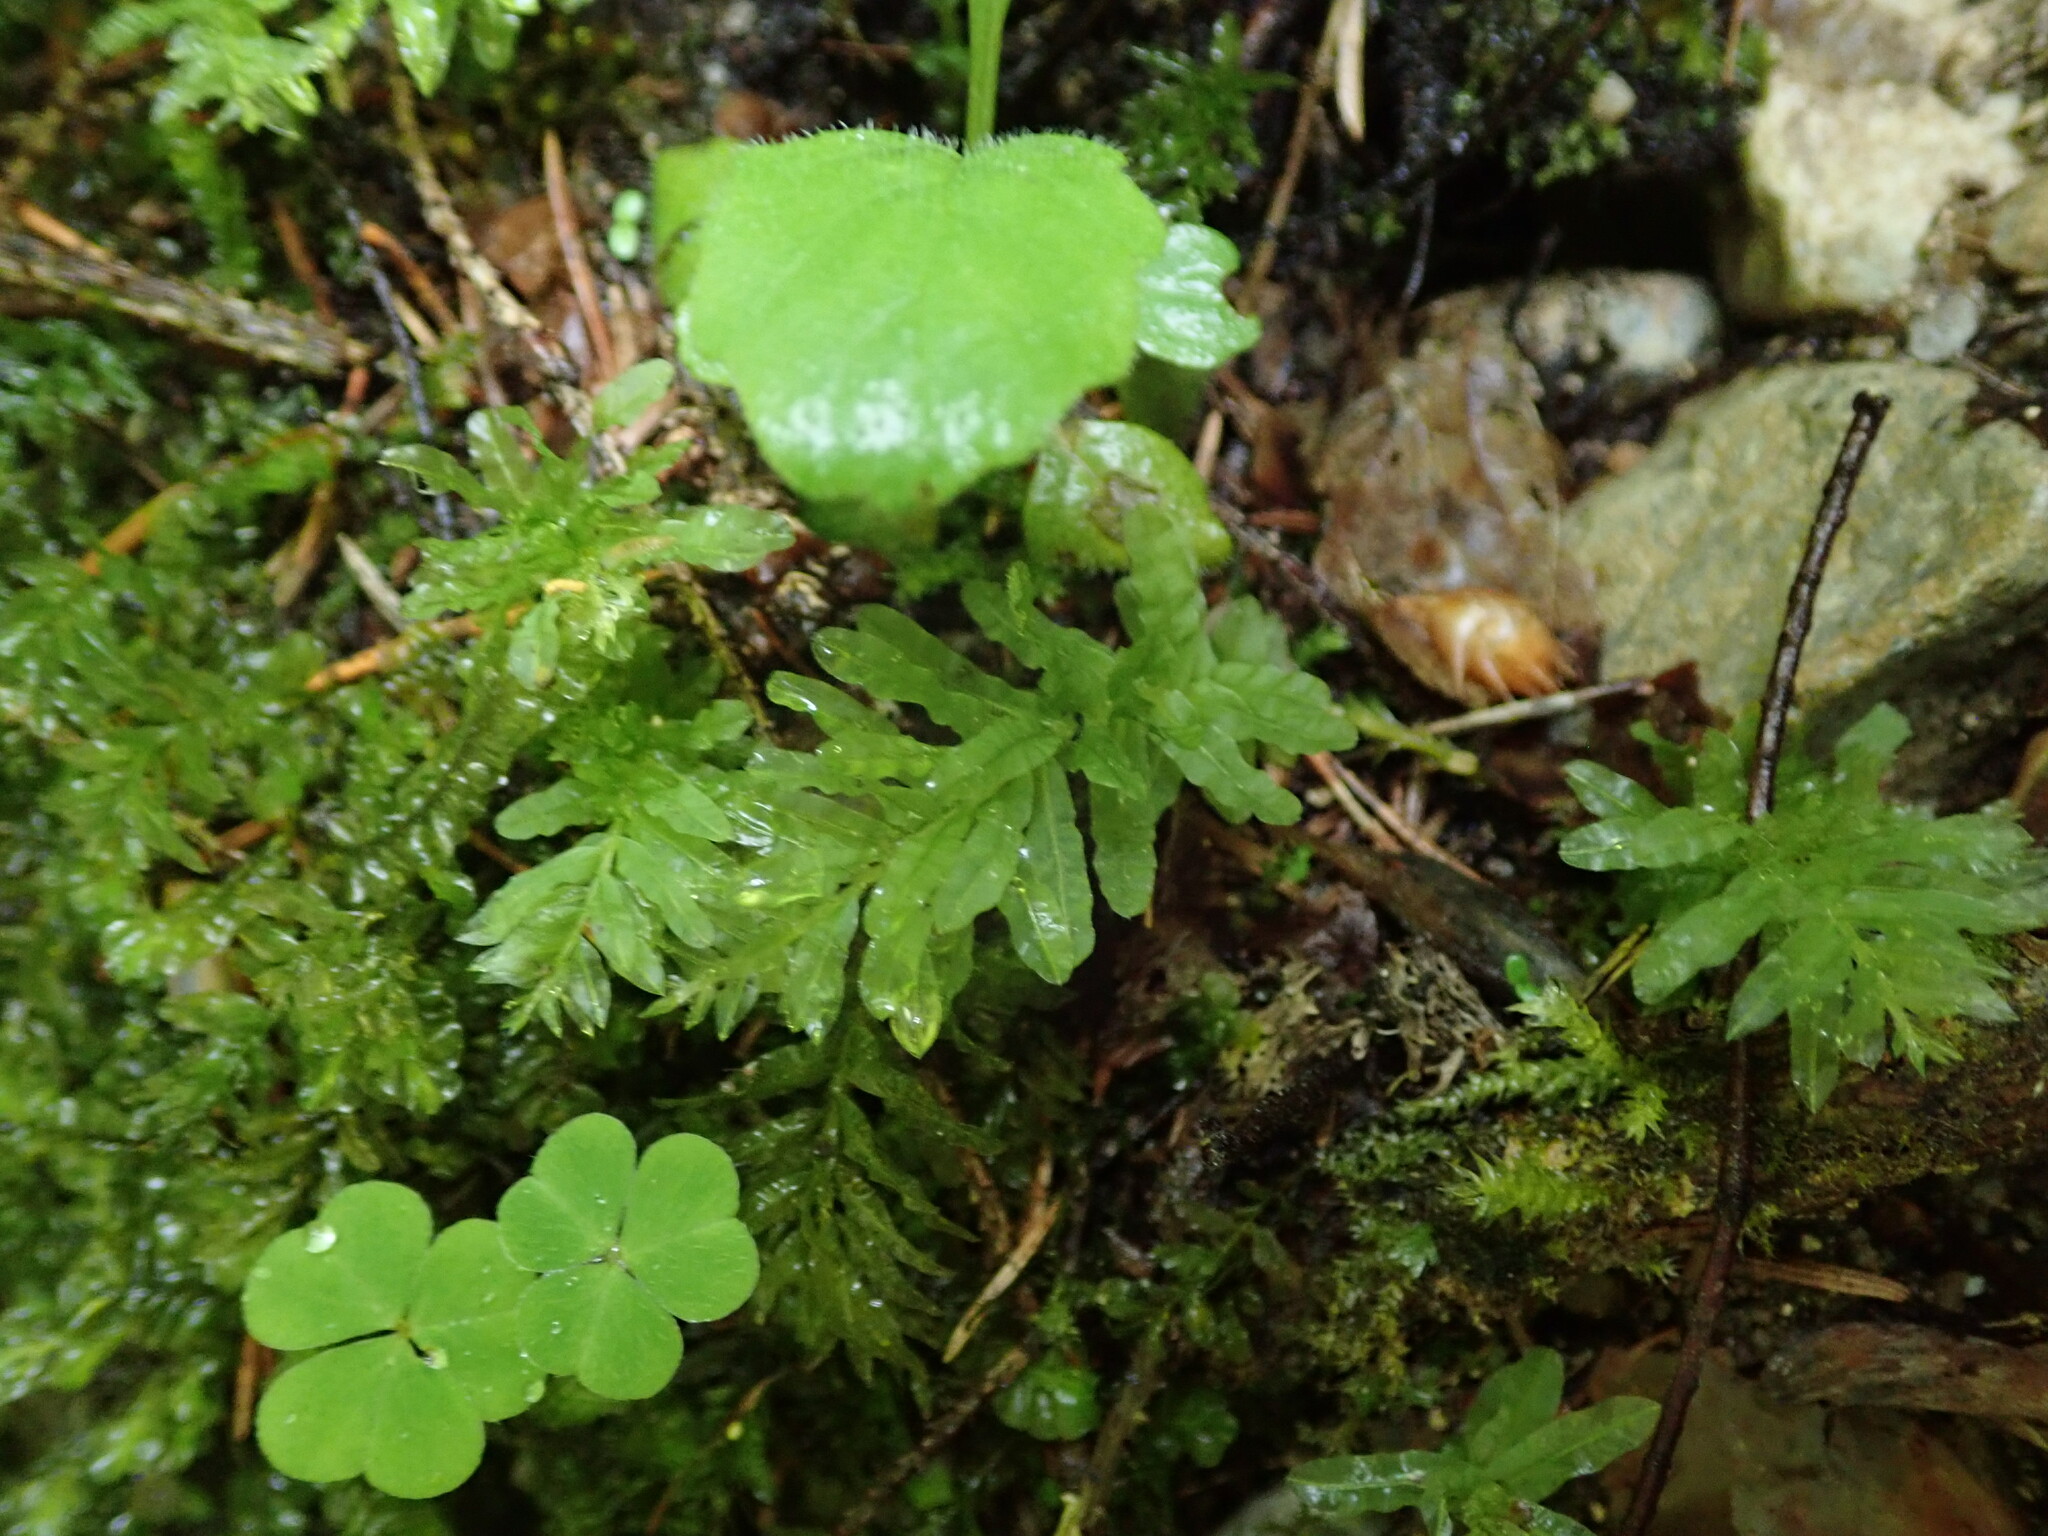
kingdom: Plantae
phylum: Bryophyta
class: Bryopsida
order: Bryales
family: Mniaceae
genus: Plagiomnium
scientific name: Plagiomnium undulatum
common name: Hart's-tongue thyme-moss
